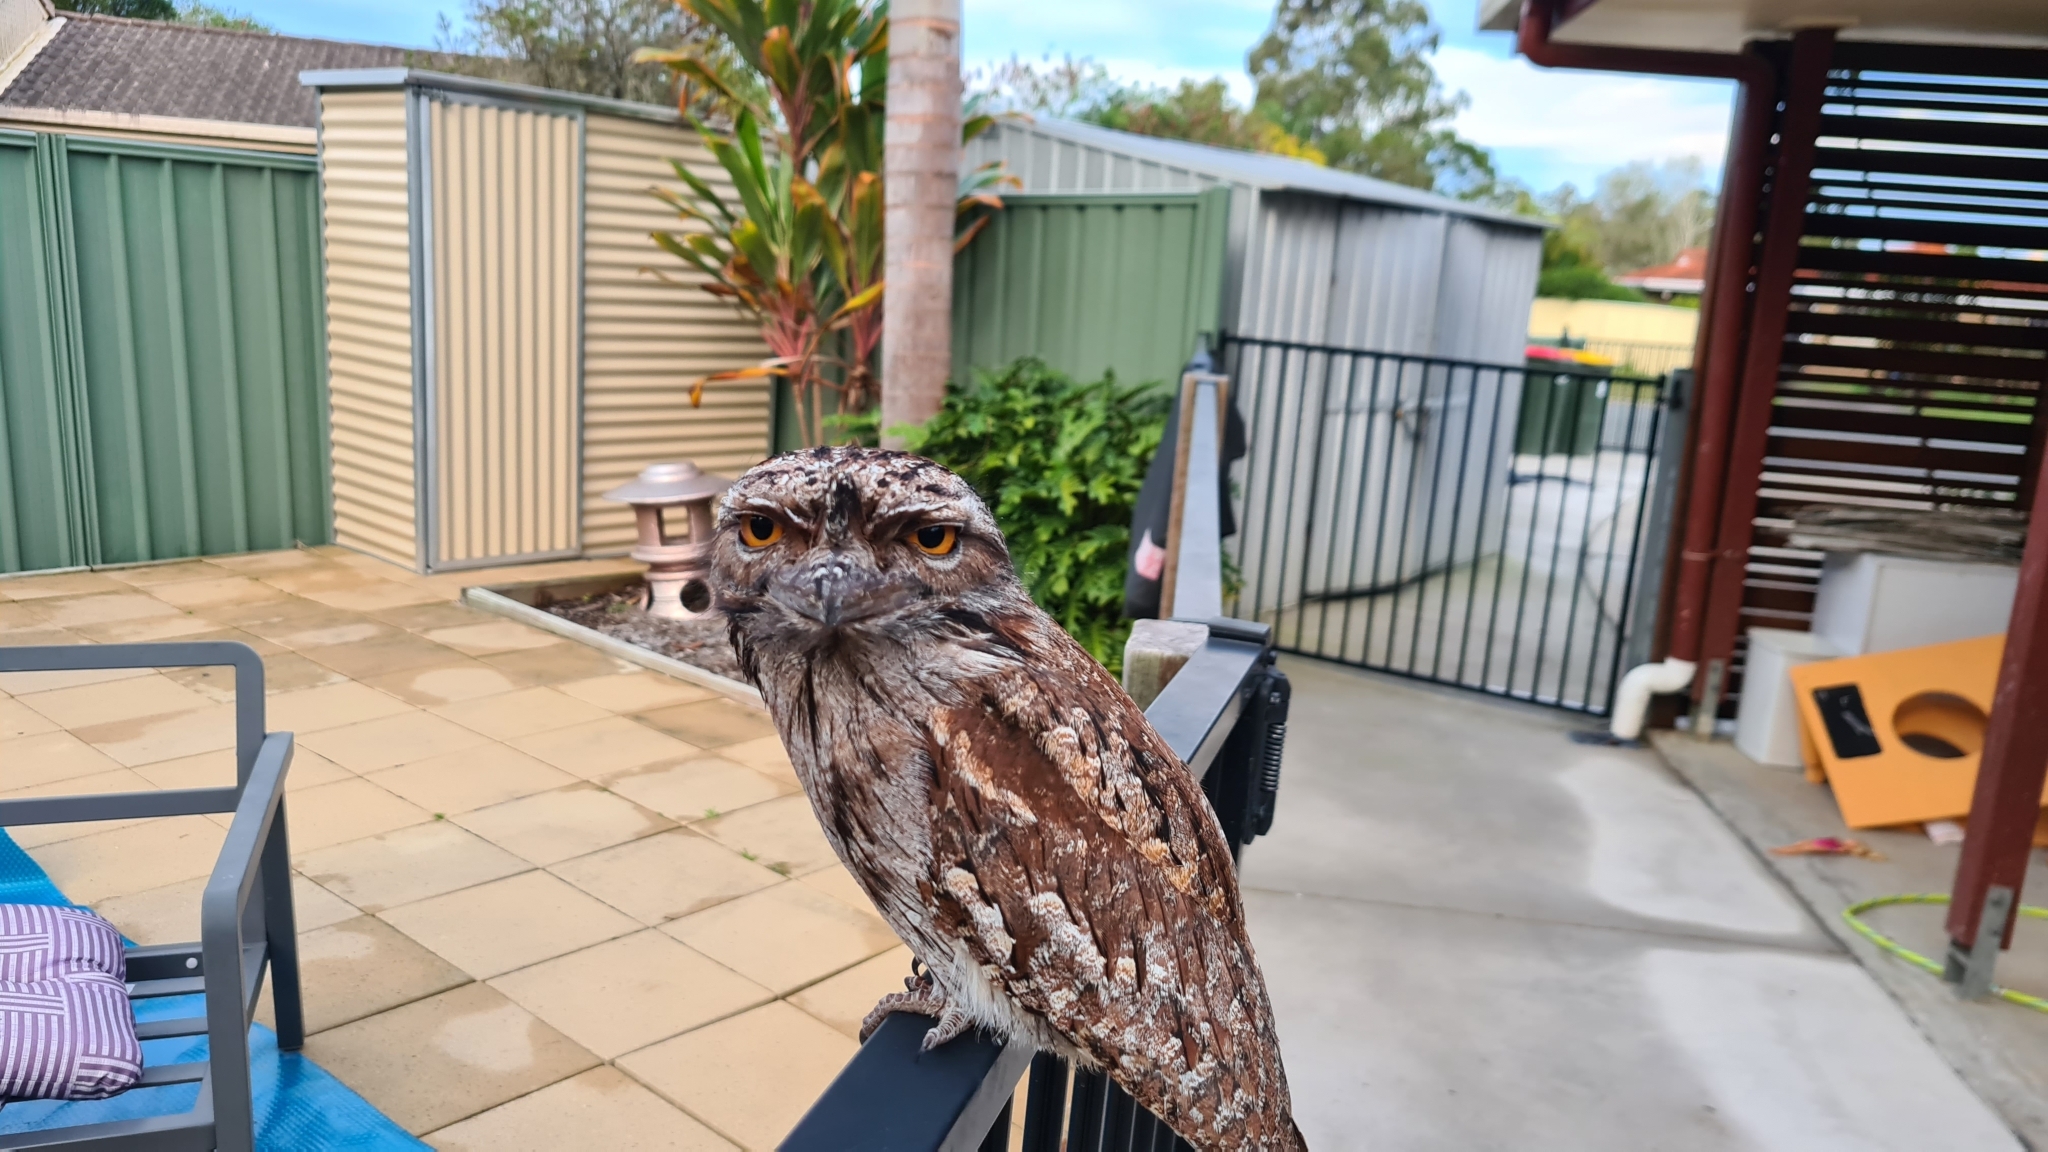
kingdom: Animalia
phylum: Chordata
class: Aves
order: Caprimulgiformes
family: Podargidae
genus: Podargus
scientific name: Podargus strigoides
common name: Tawny frogmouth
